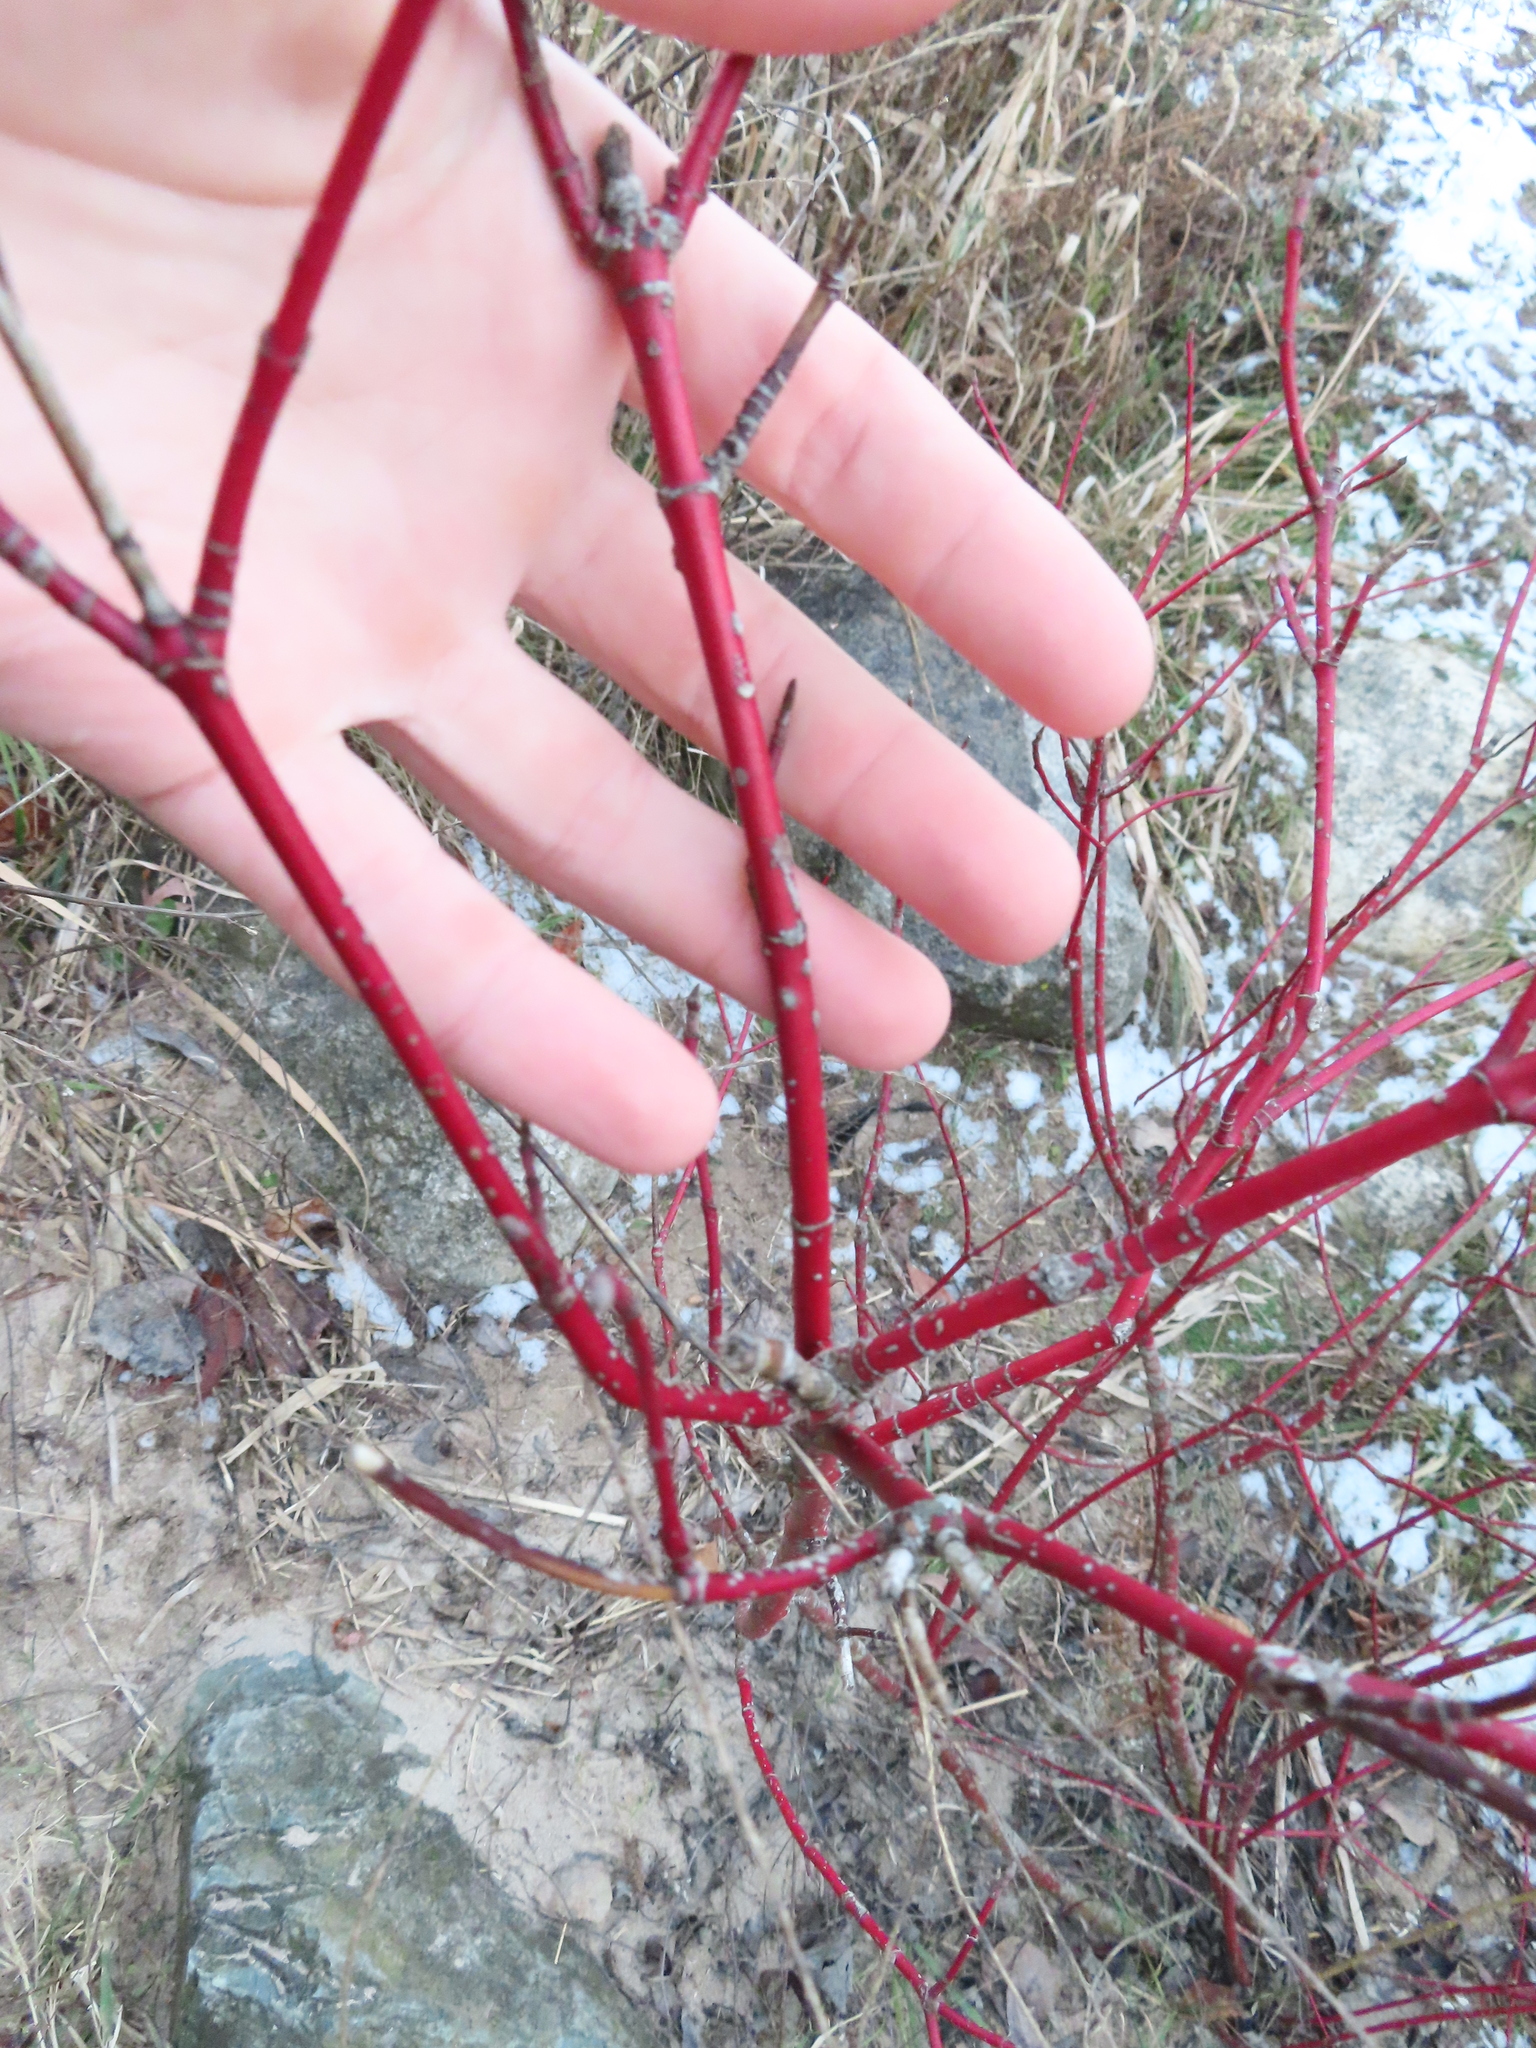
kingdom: Plantae
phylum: Tracheophyta
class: Magnoliopsida
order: Cornales
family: Cornaceae
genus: Cornus
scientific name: Cornus sericea
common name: Red-osier dogwood
